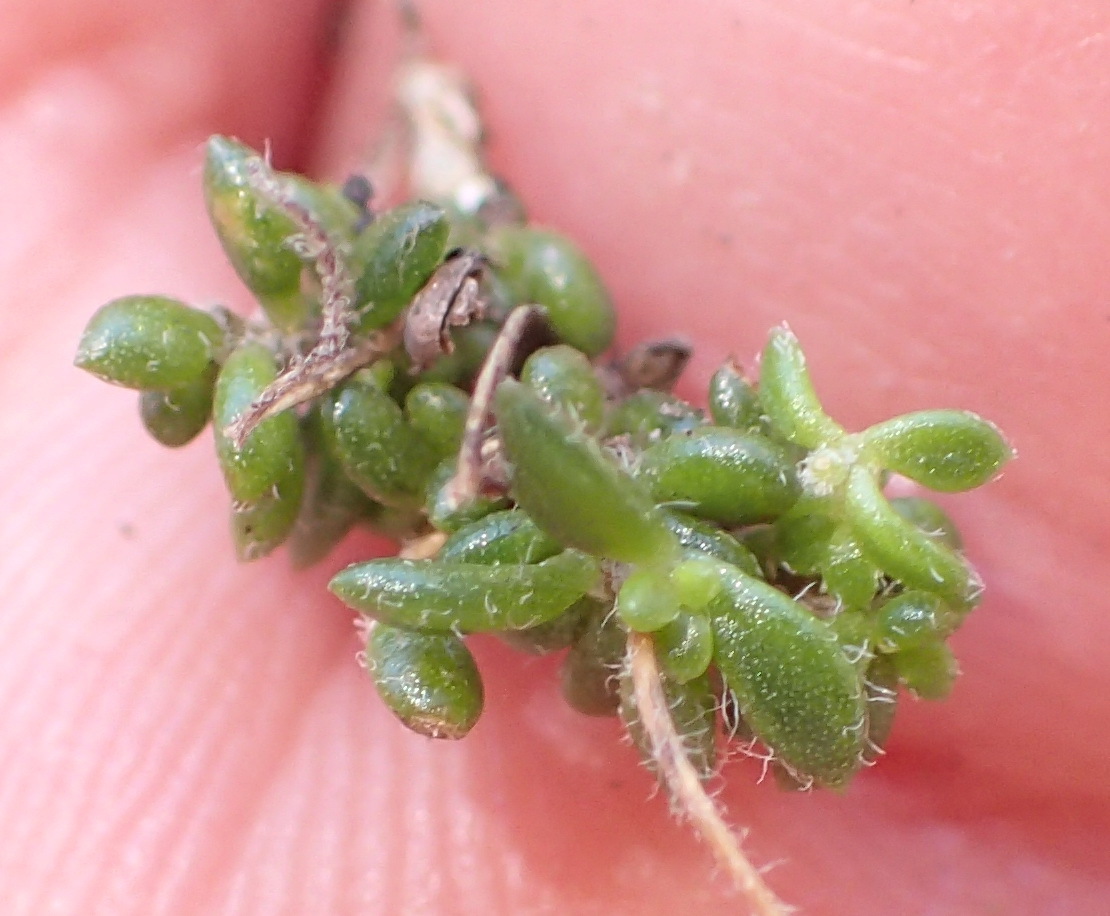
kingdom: Plantae
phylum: Tracheophyta
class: Magnoliopsida
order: Fabales
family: Fabaceae
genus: Aspalathus
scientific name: Aspalathus patens
